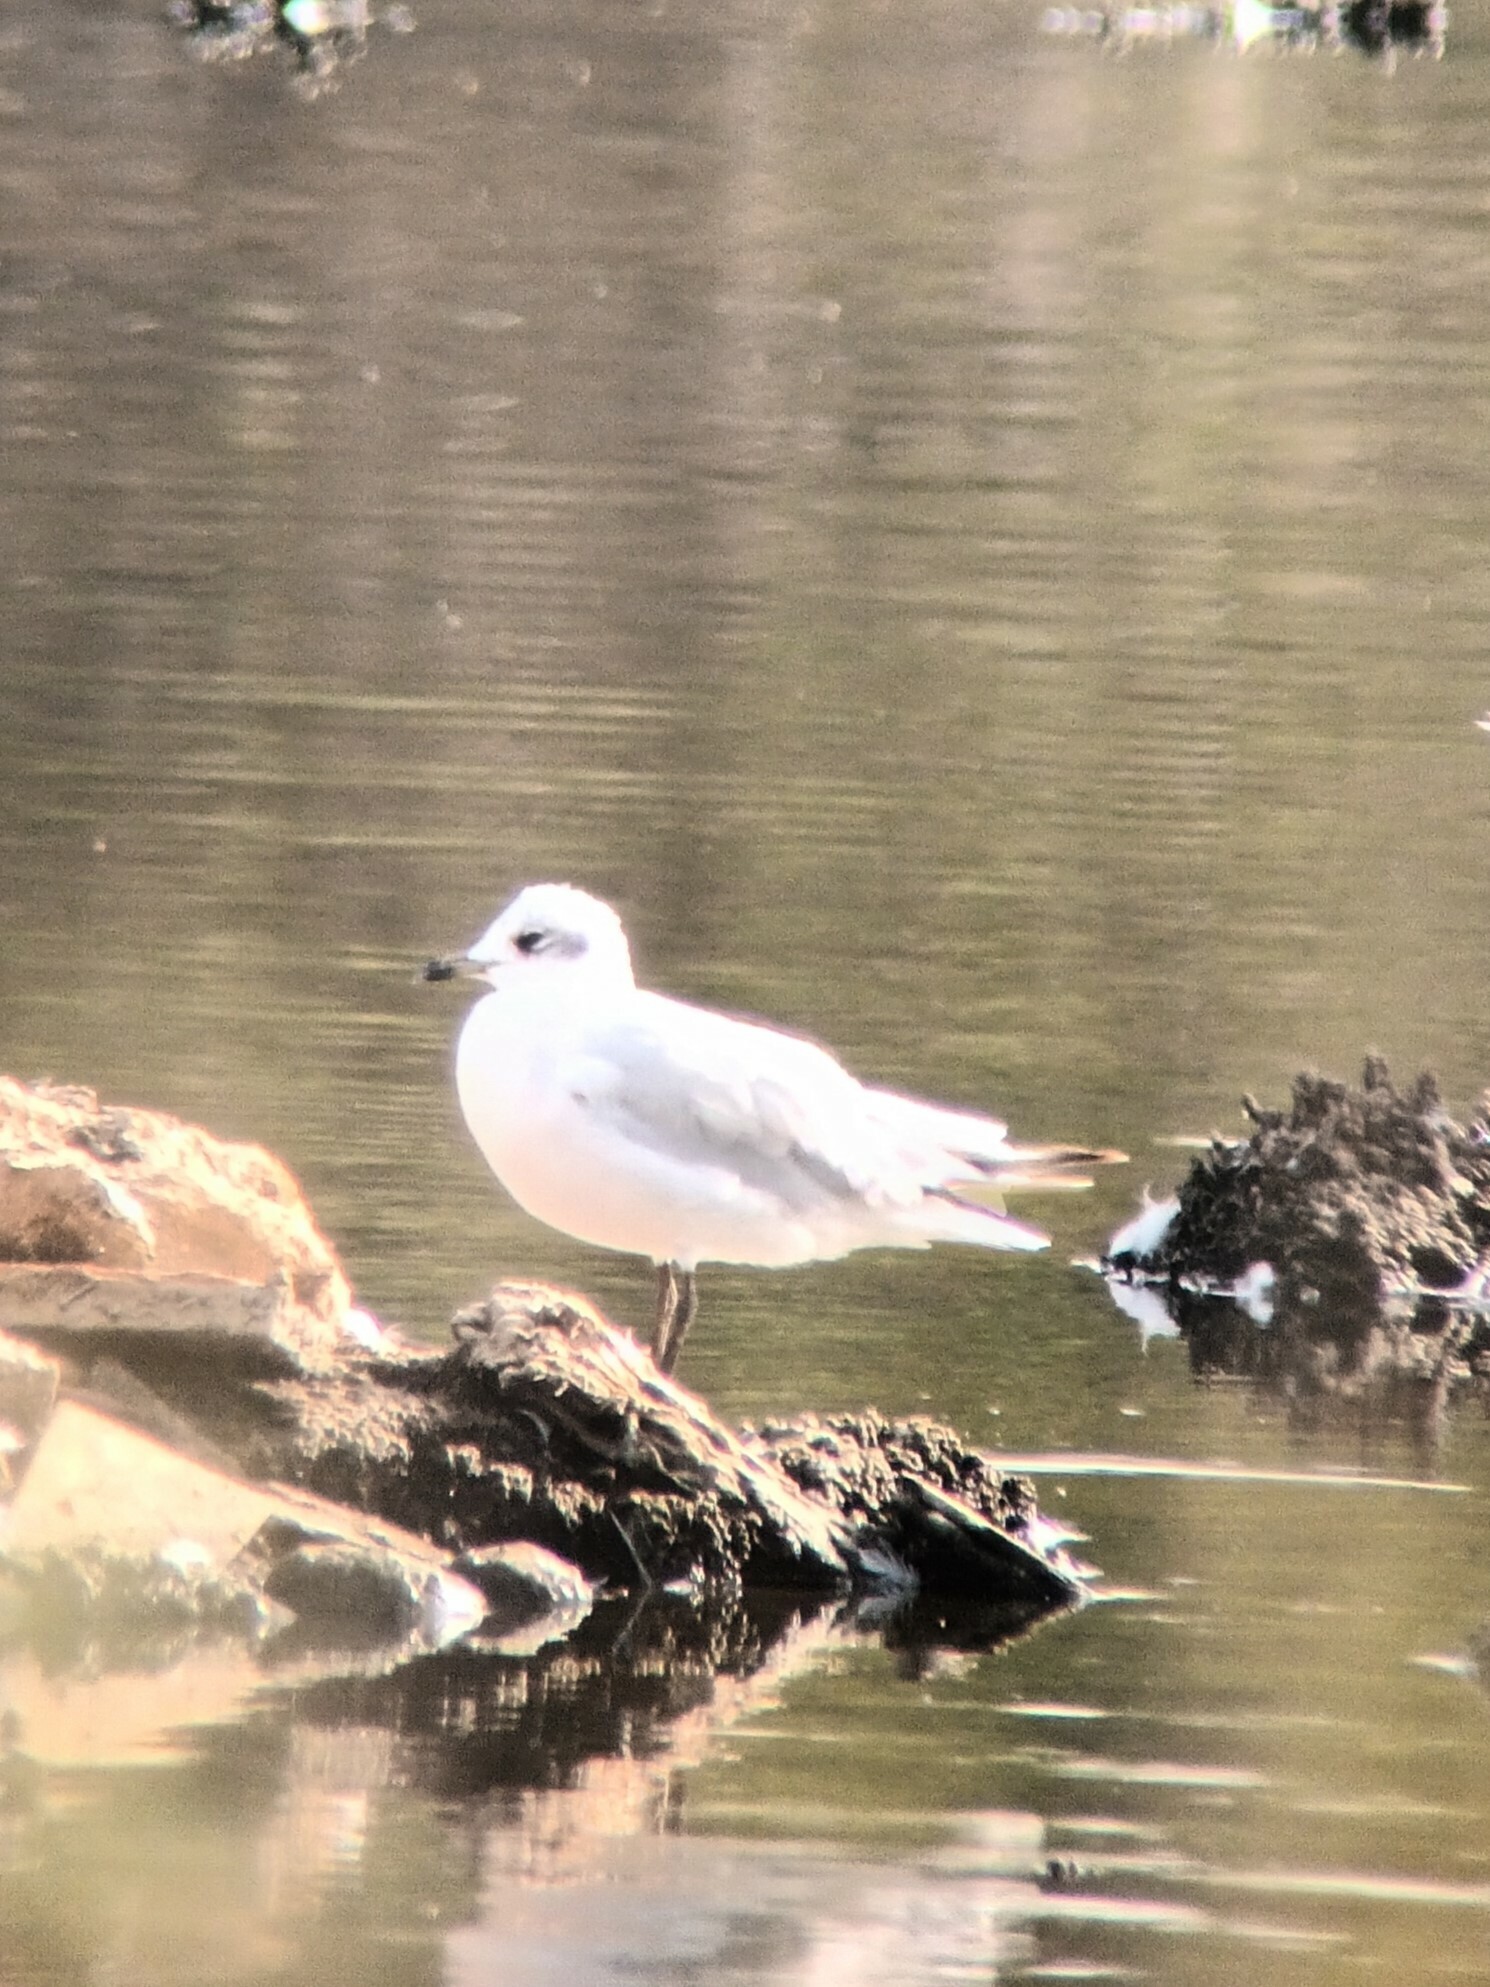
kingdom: Animalia
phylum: Chordata
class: Aves
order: Charadriiformes
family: Laridae
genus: Ichthyaetus
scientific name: Ichthyaetus melanocephalus
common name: Mediterranean gull
